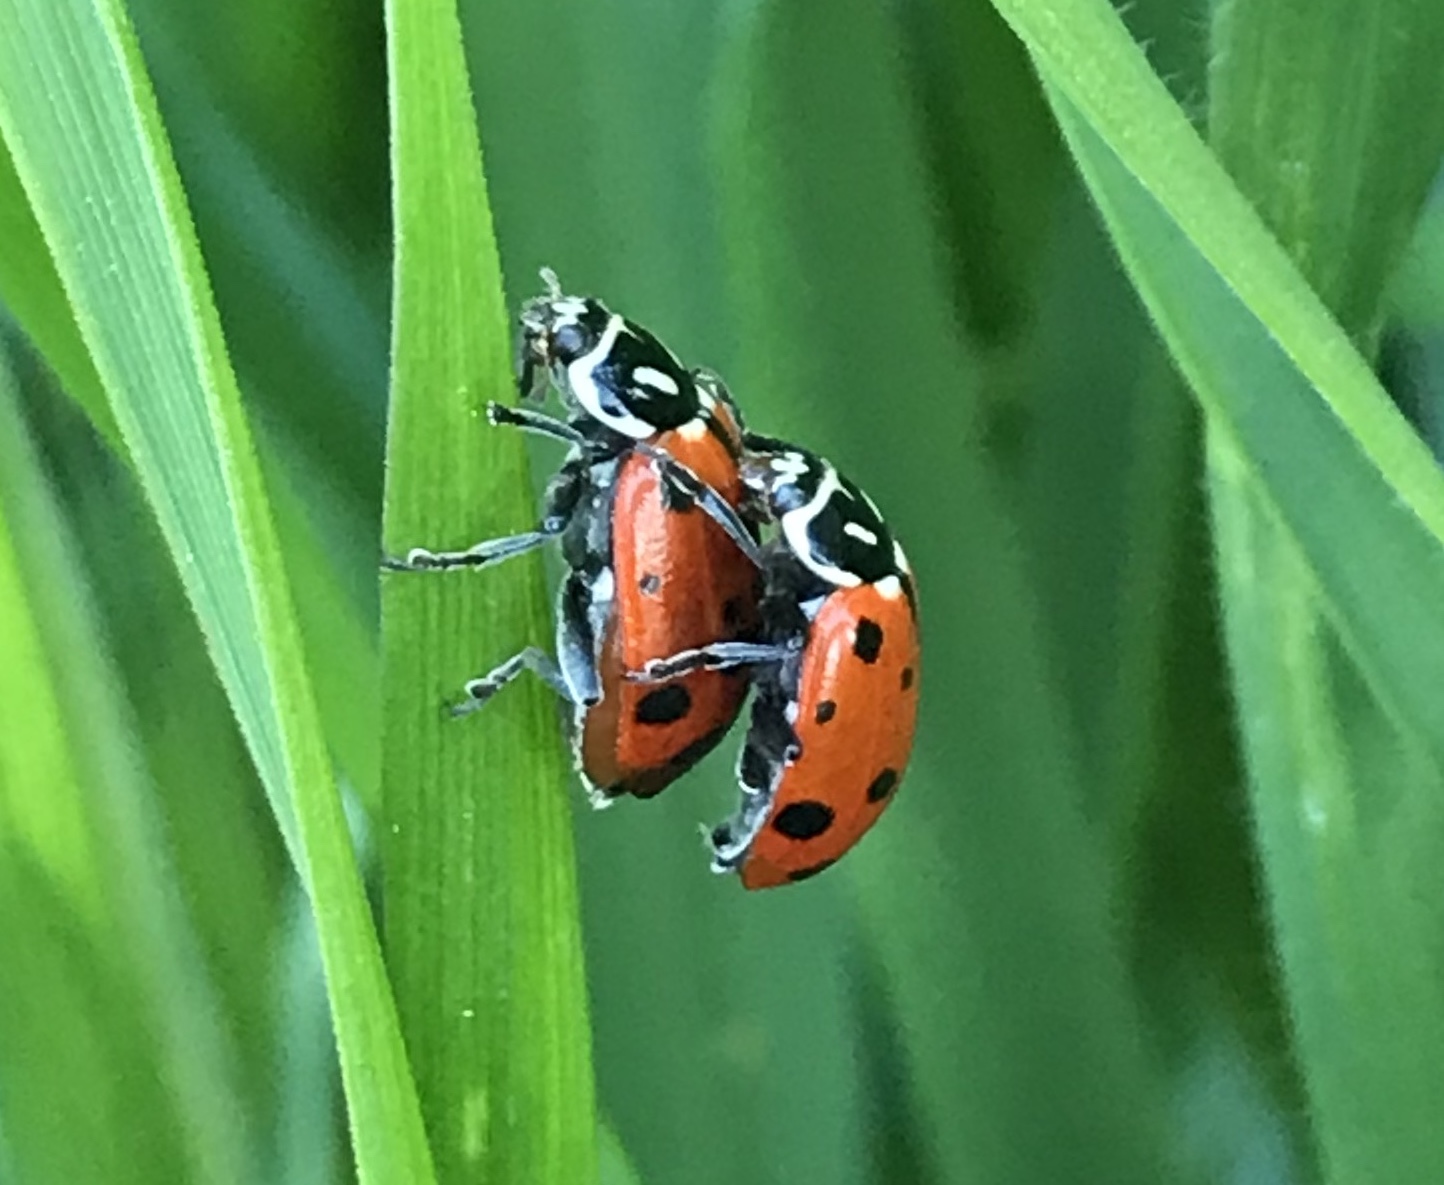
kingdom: Animalia
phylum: Arthropoda
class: Insecta
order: Coleoptera
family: Coccinellidae
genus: Hippodamia
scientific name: Hippodamia convergens
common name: Convergent lady beetle
